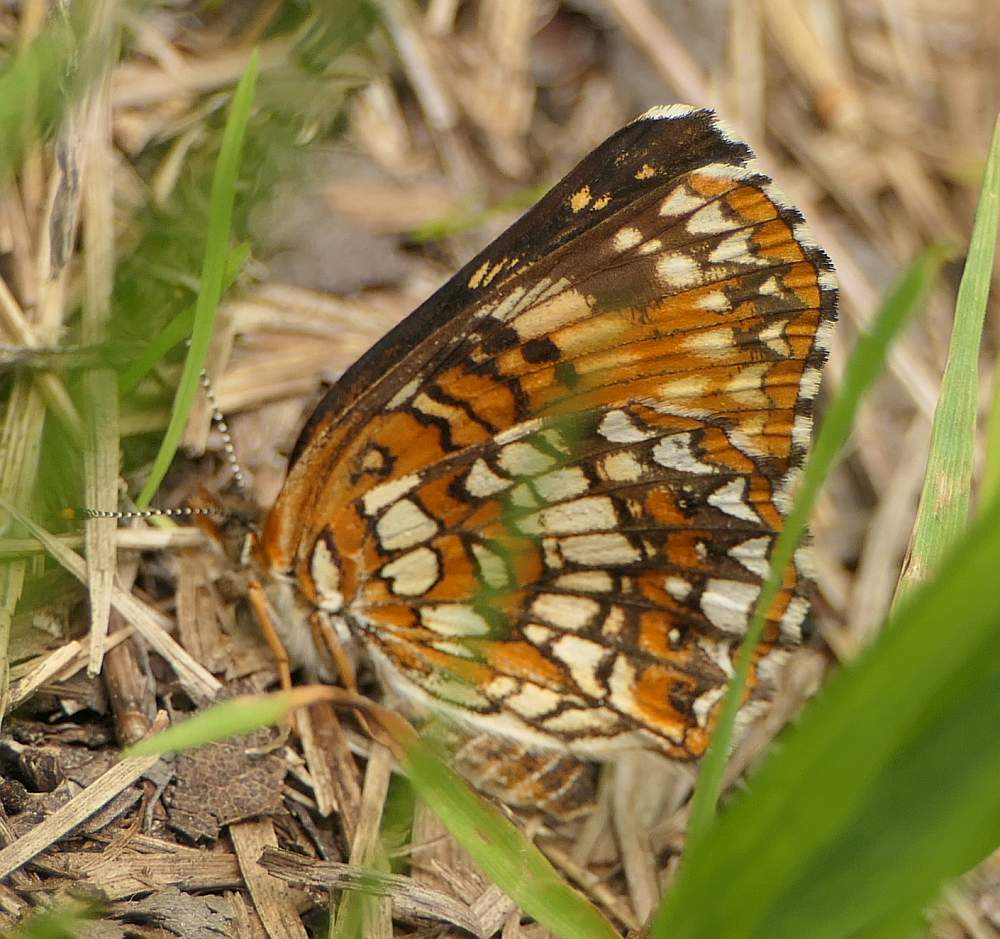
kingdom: Animalia
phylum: Arthropoda
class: Insecta
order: Lepidoptera
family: Nymphalidae
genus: Chlosyne
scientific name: Chlosyne harrisii
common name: Harris's checkerspot
